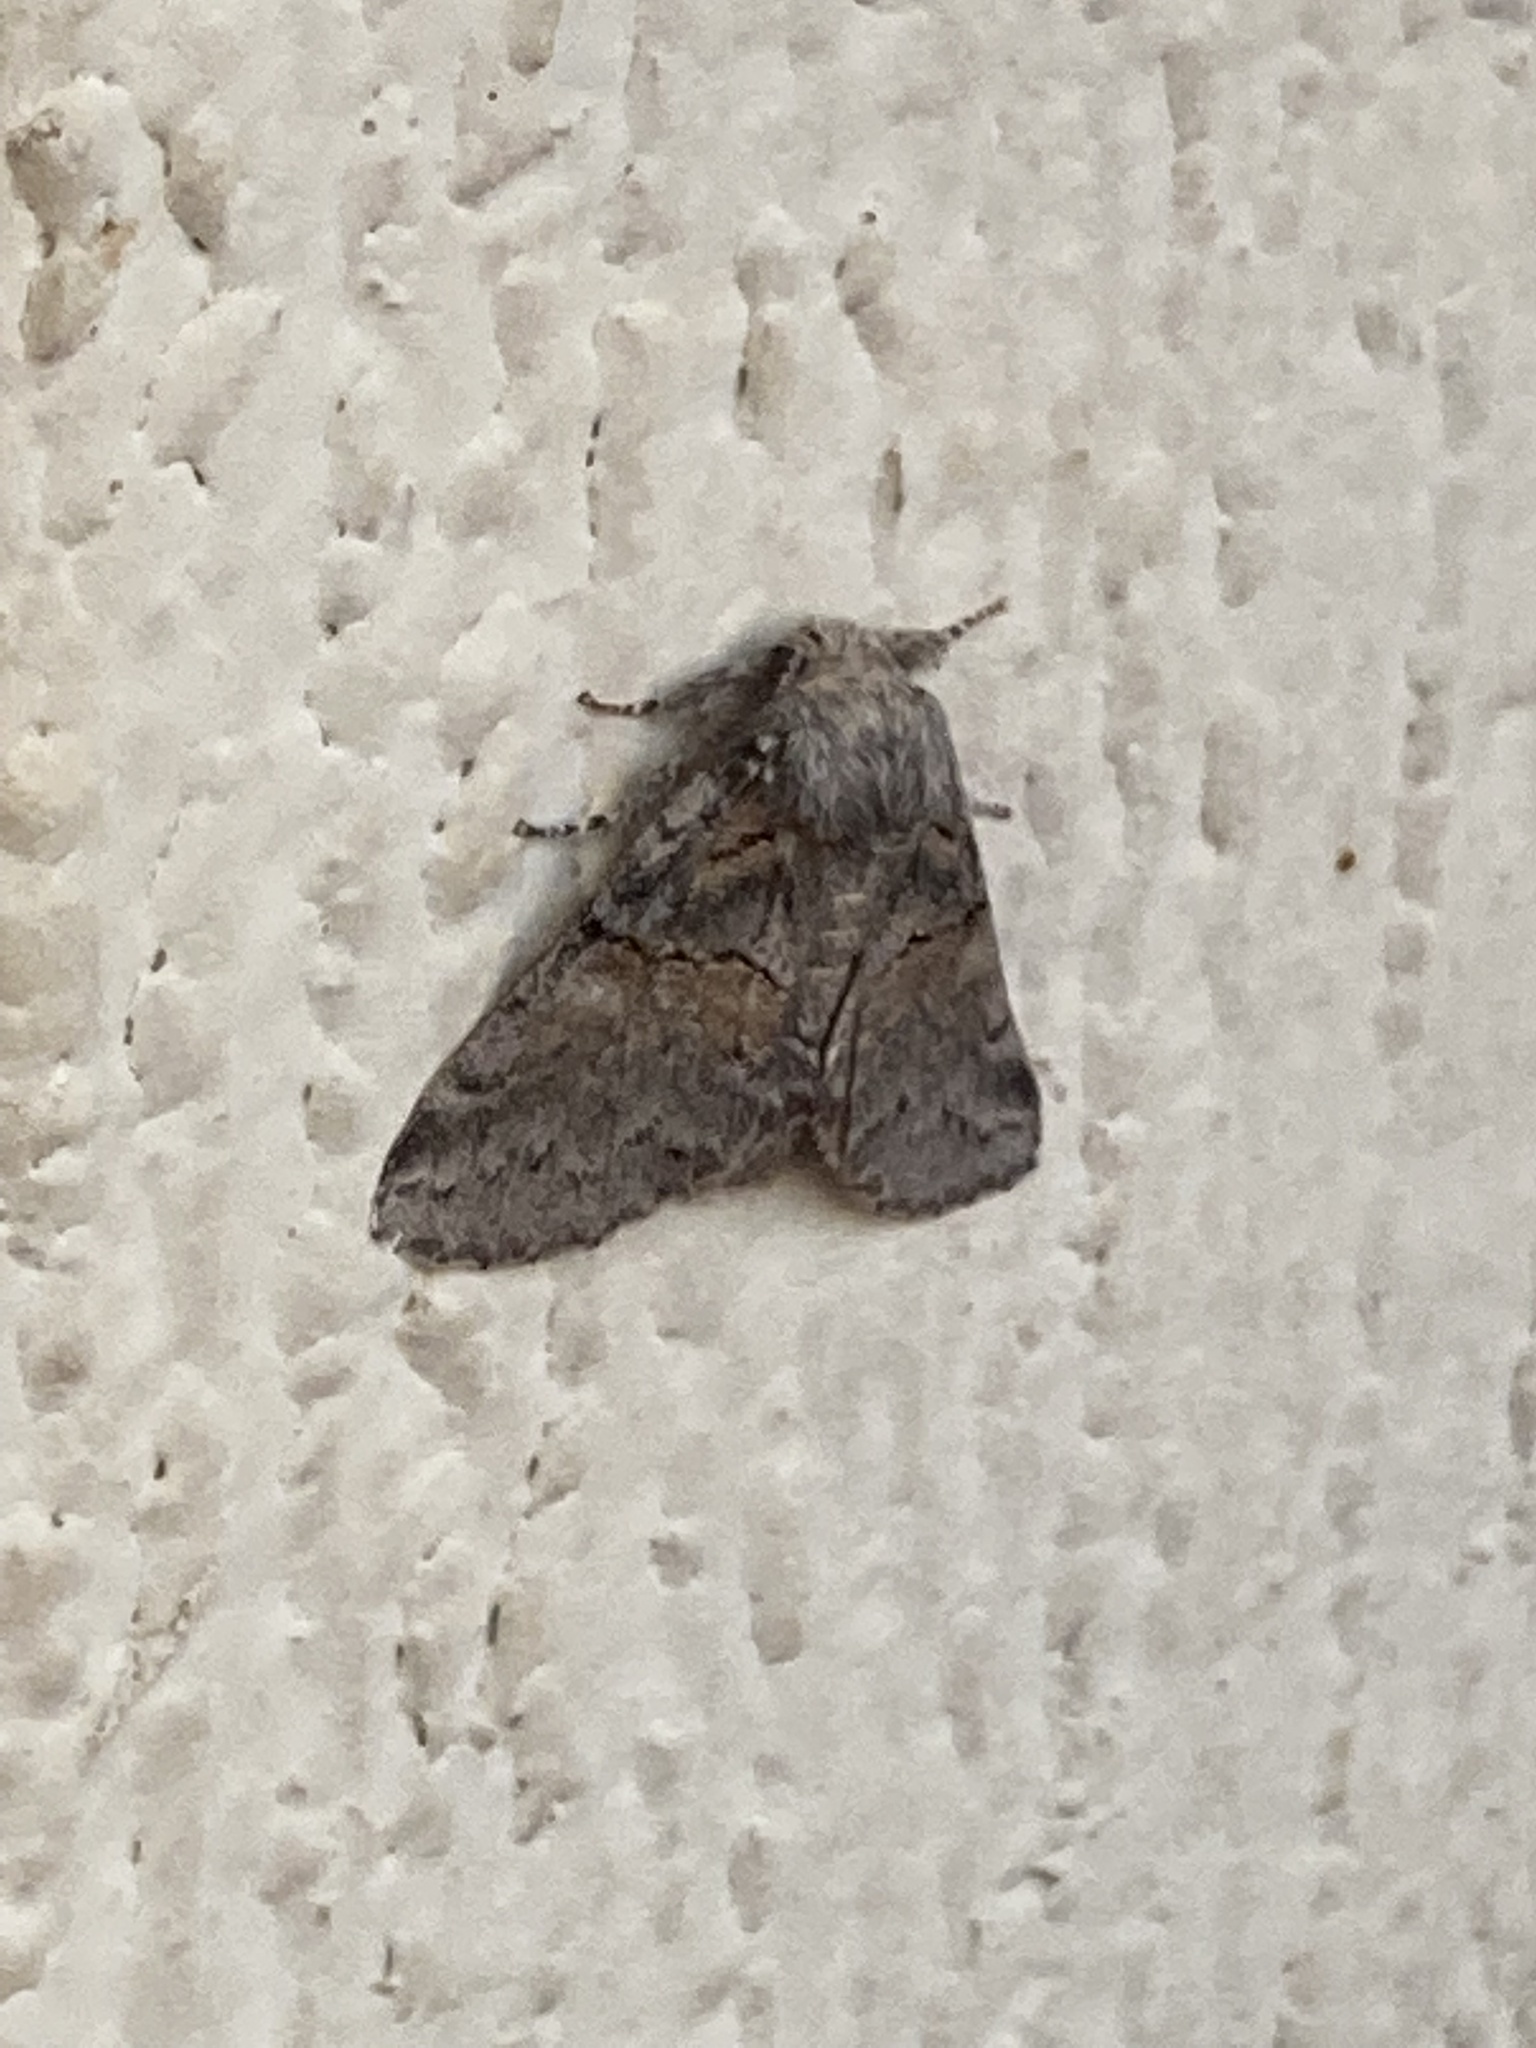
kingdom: Animalia
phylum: Arthropoda
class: Insecta
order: Lepidoptera
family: Notodontidae
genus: Gluphisia
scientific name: Gluphisia septentrionis
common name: Common gluphisia
